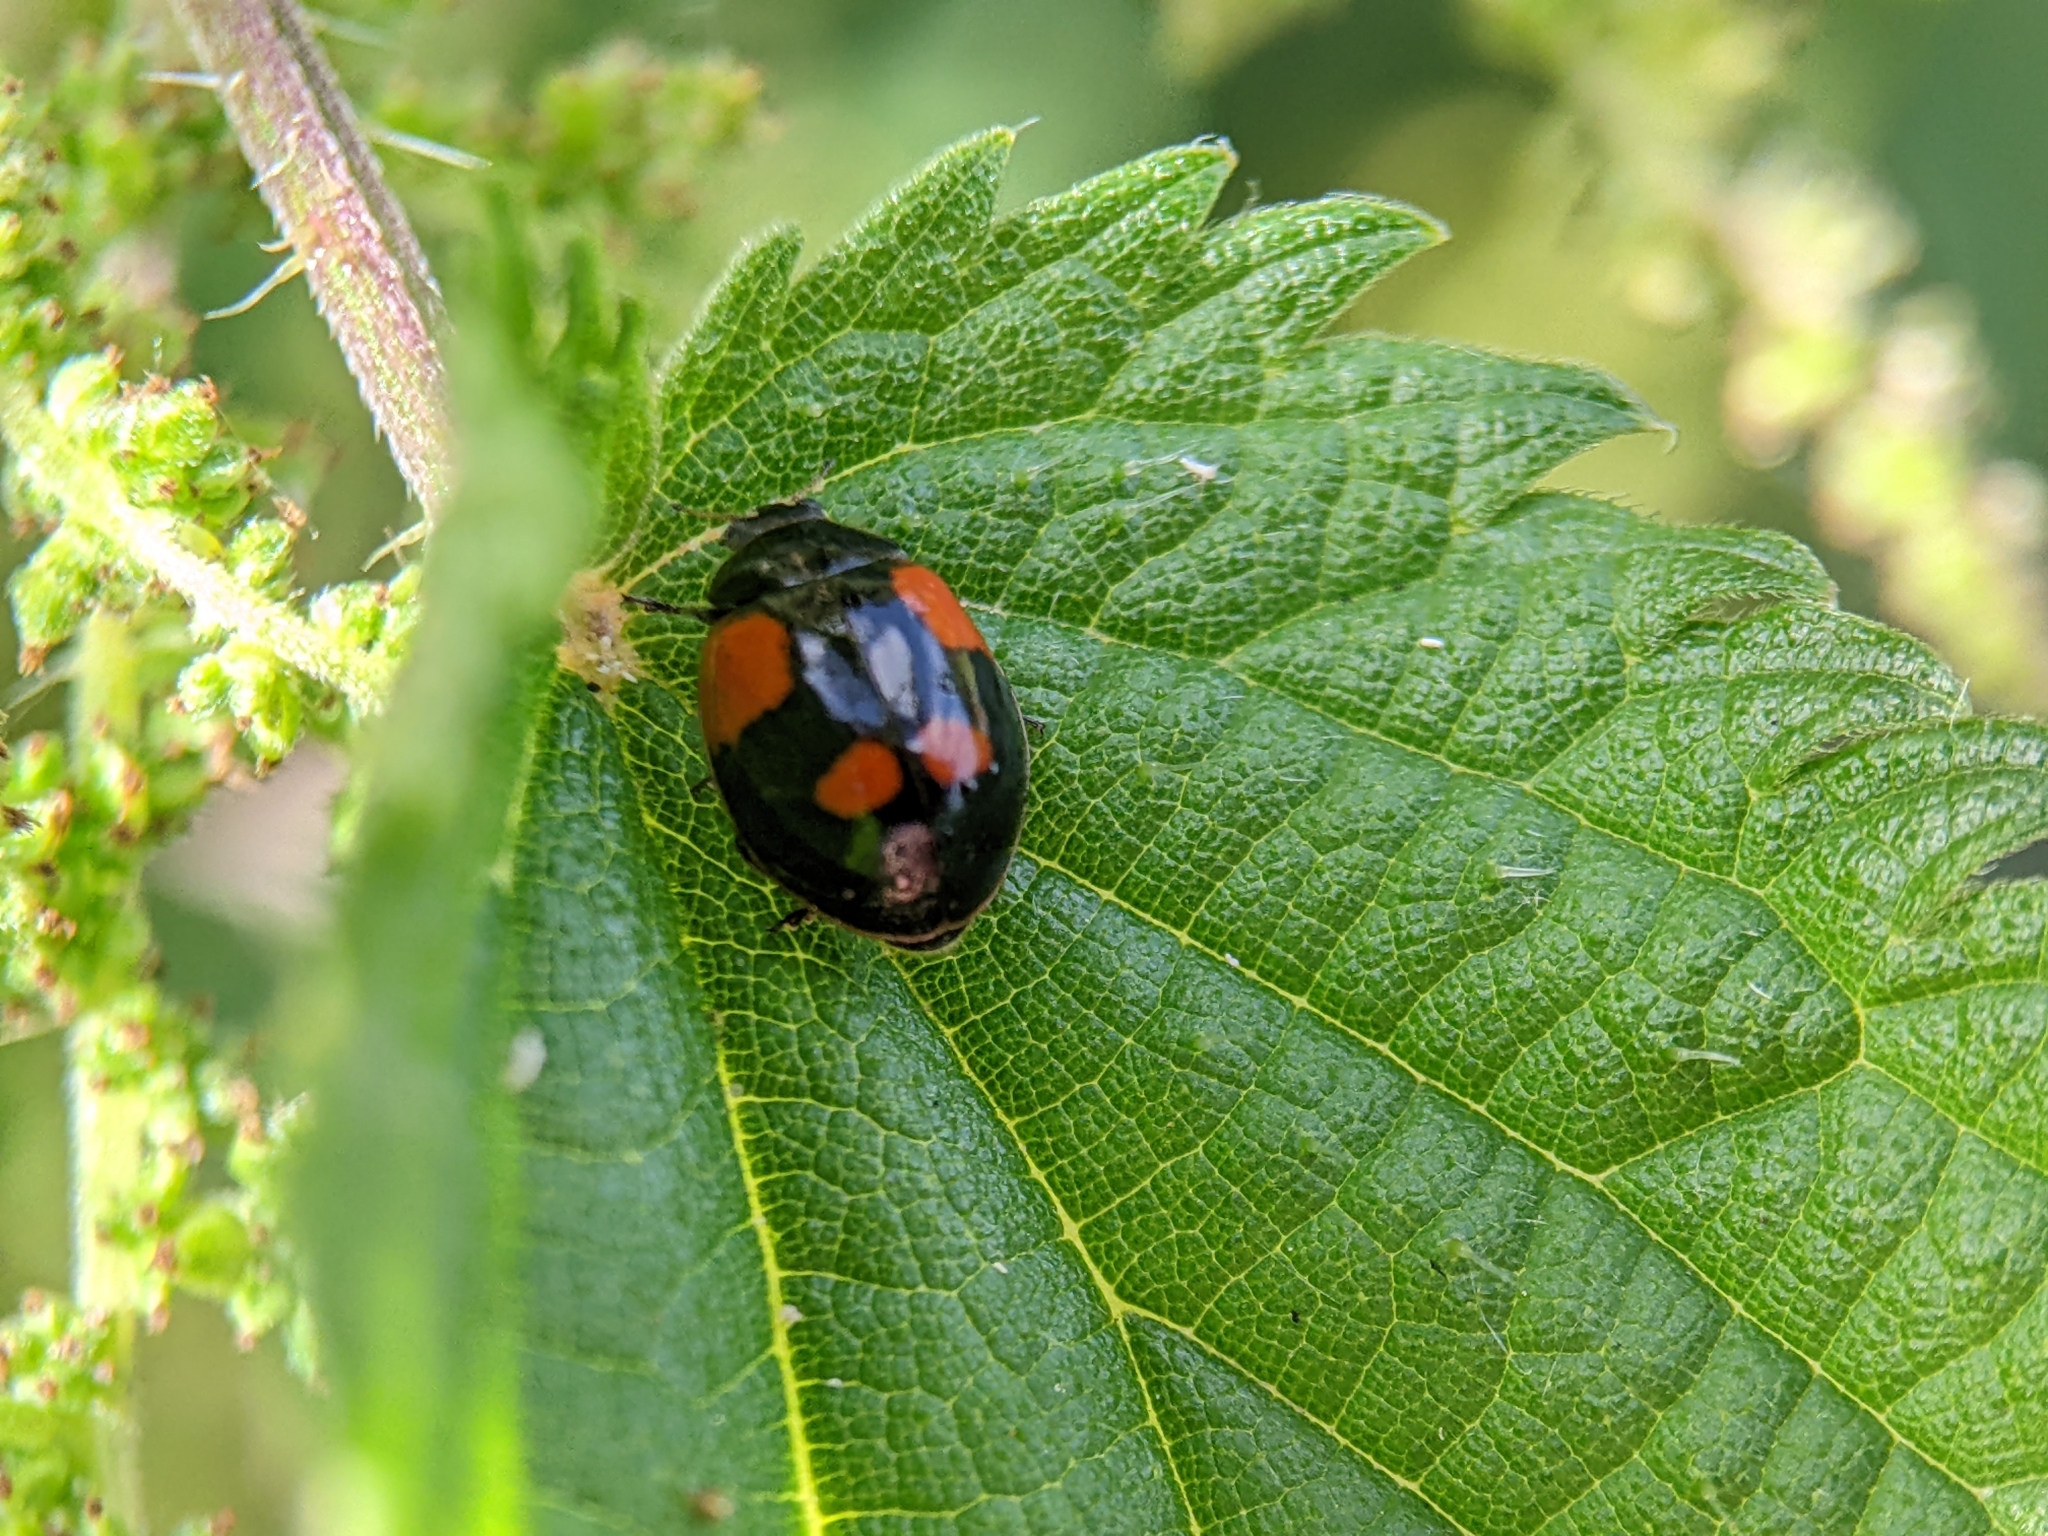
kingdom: Animalia
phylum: Arthropoda
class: Insecta
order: Coleoptera
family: Coccinellidae
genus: Adalia
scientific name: Adalia bipunctata
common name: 2-spot ladybird
